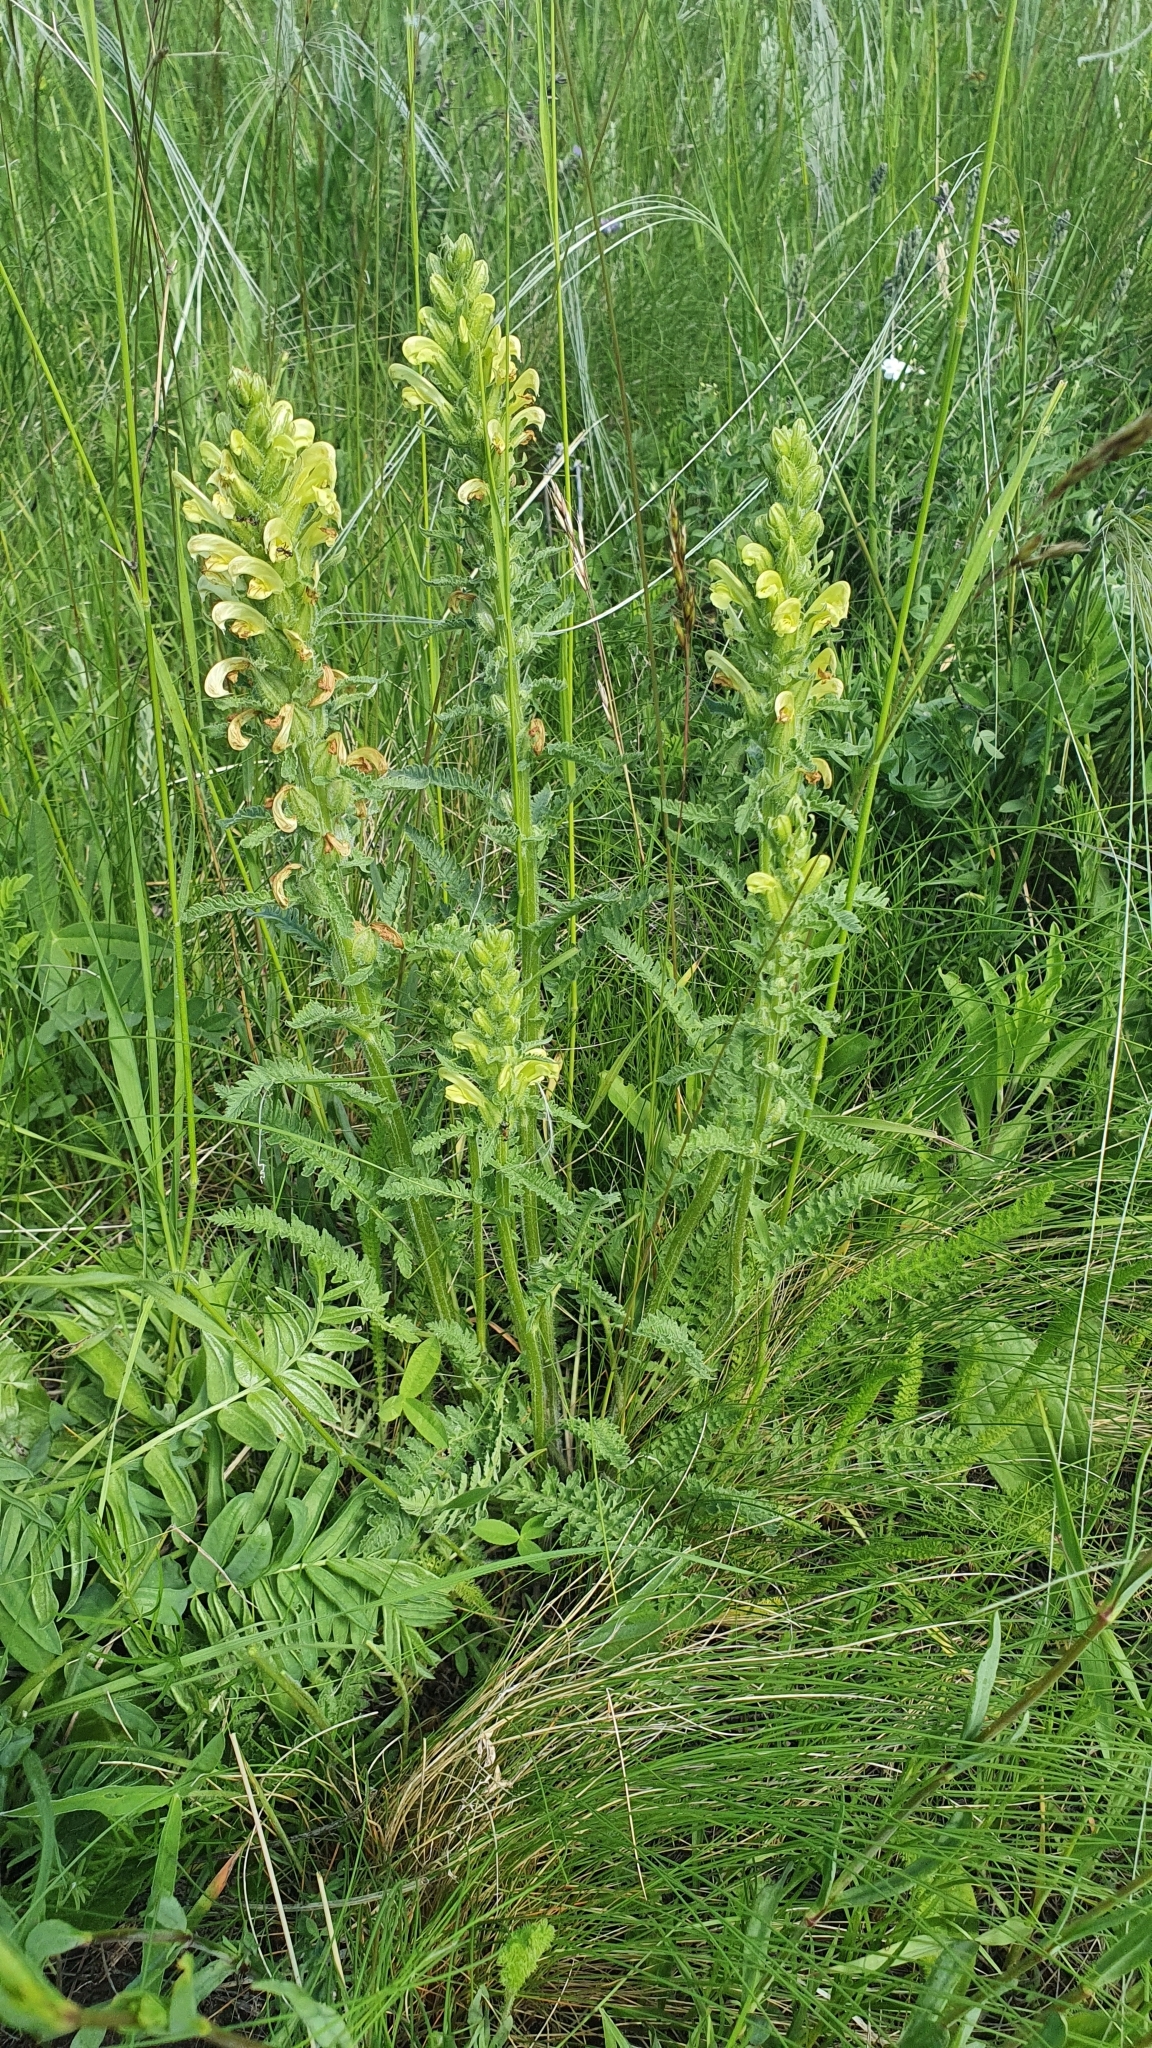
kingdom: Plantae
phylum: Tracheophyta
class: Magnoliopsida
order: Lamiales
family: Orobanchaceae
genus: Pedicularis
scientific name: Pedicularis kaufmannii
